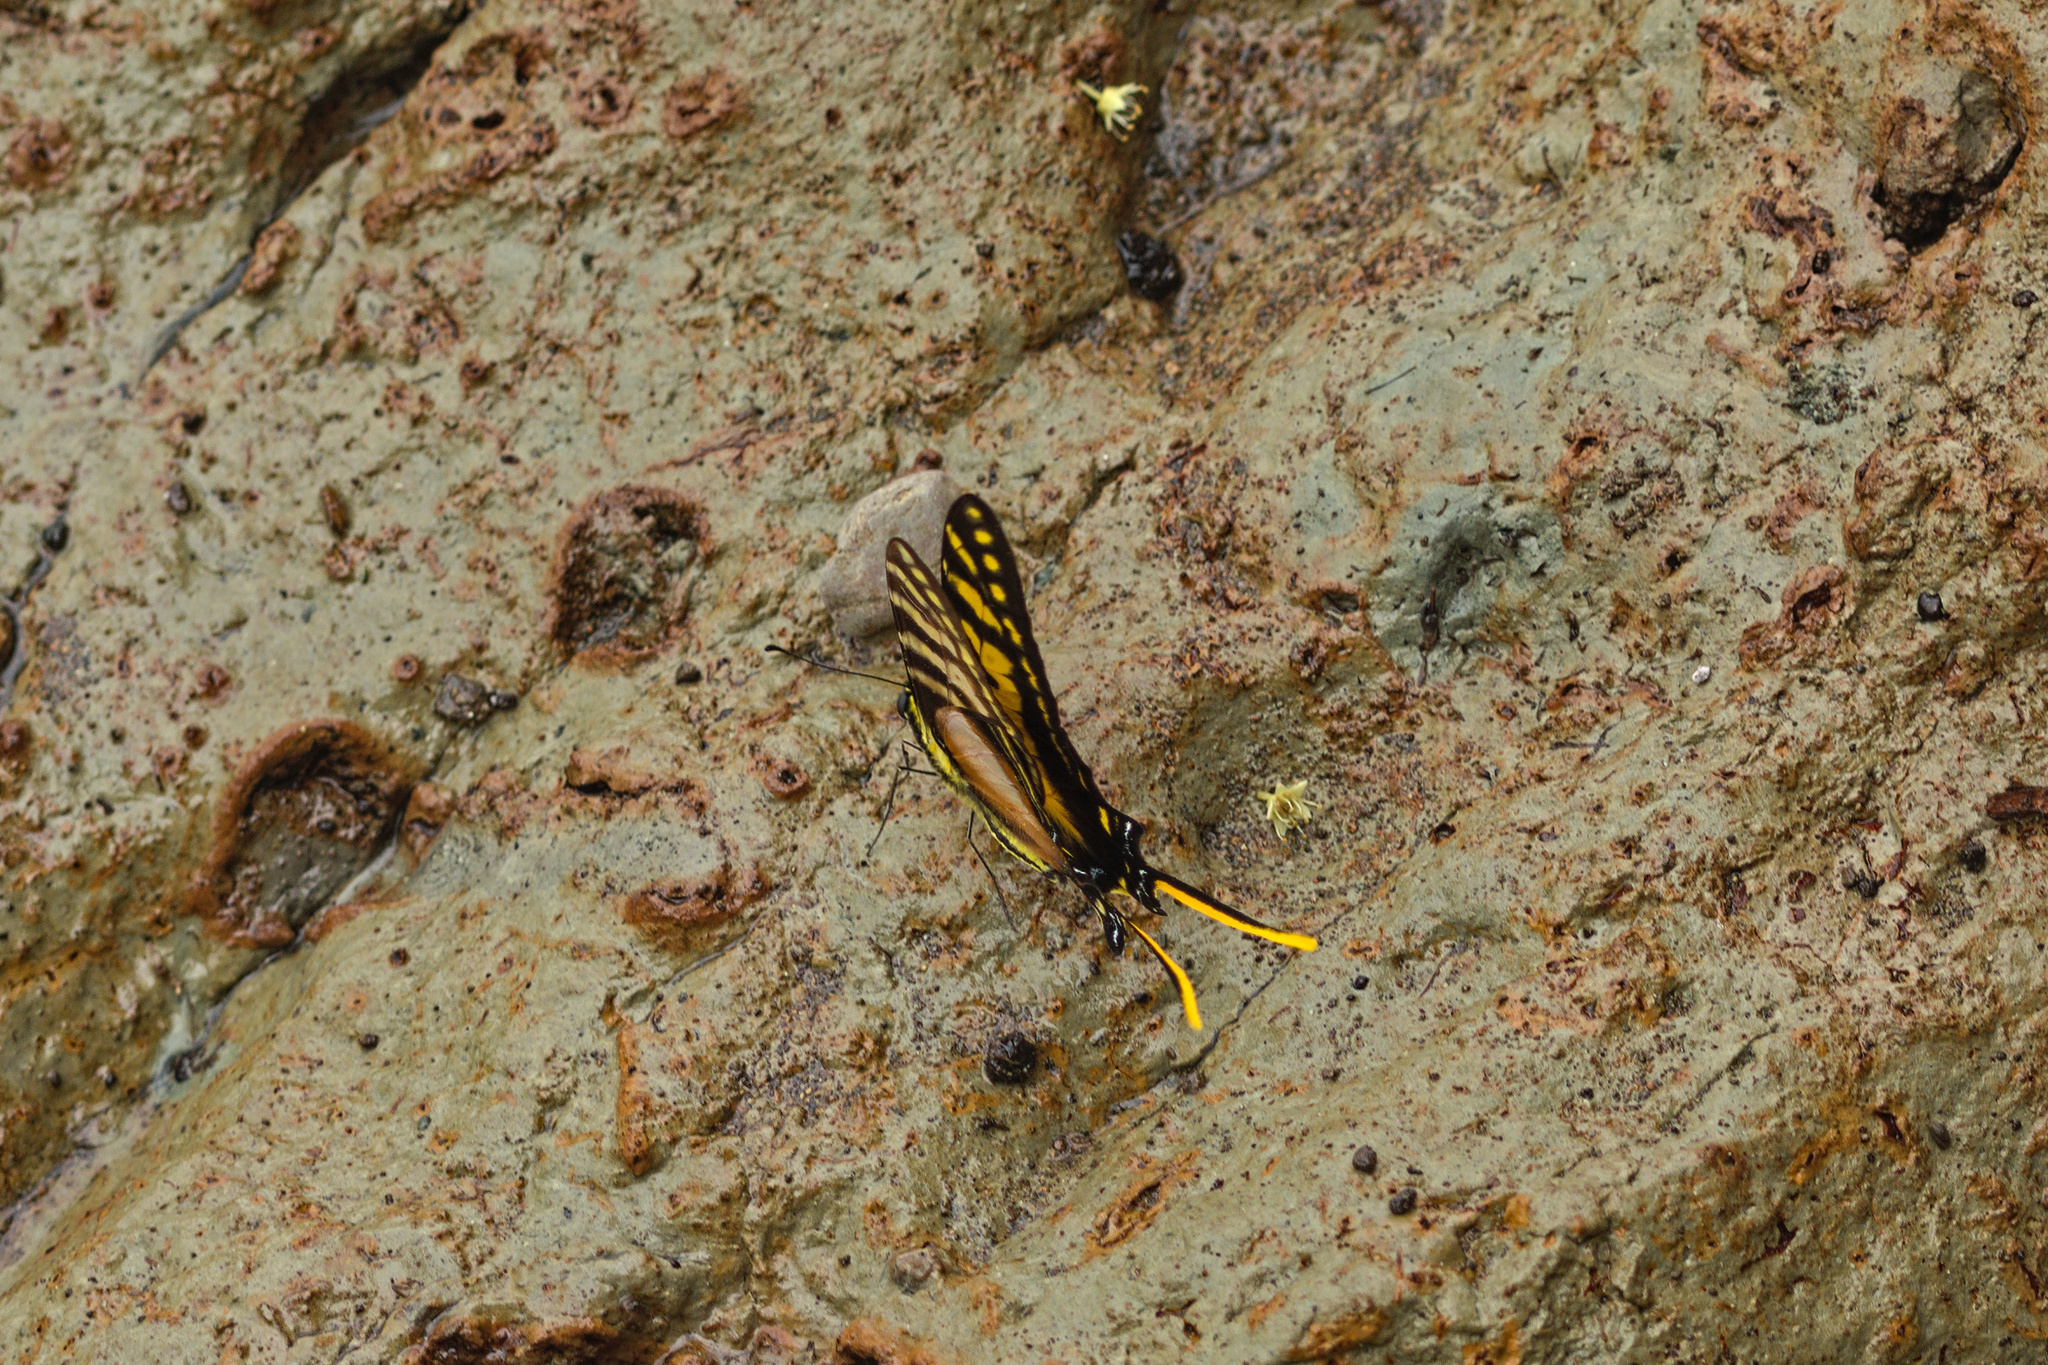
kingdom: Animalia
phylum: Arthropoda
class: Insecta
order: Lepidoptera
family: Papilionidae
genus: Eurytides
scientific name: Eurytides
